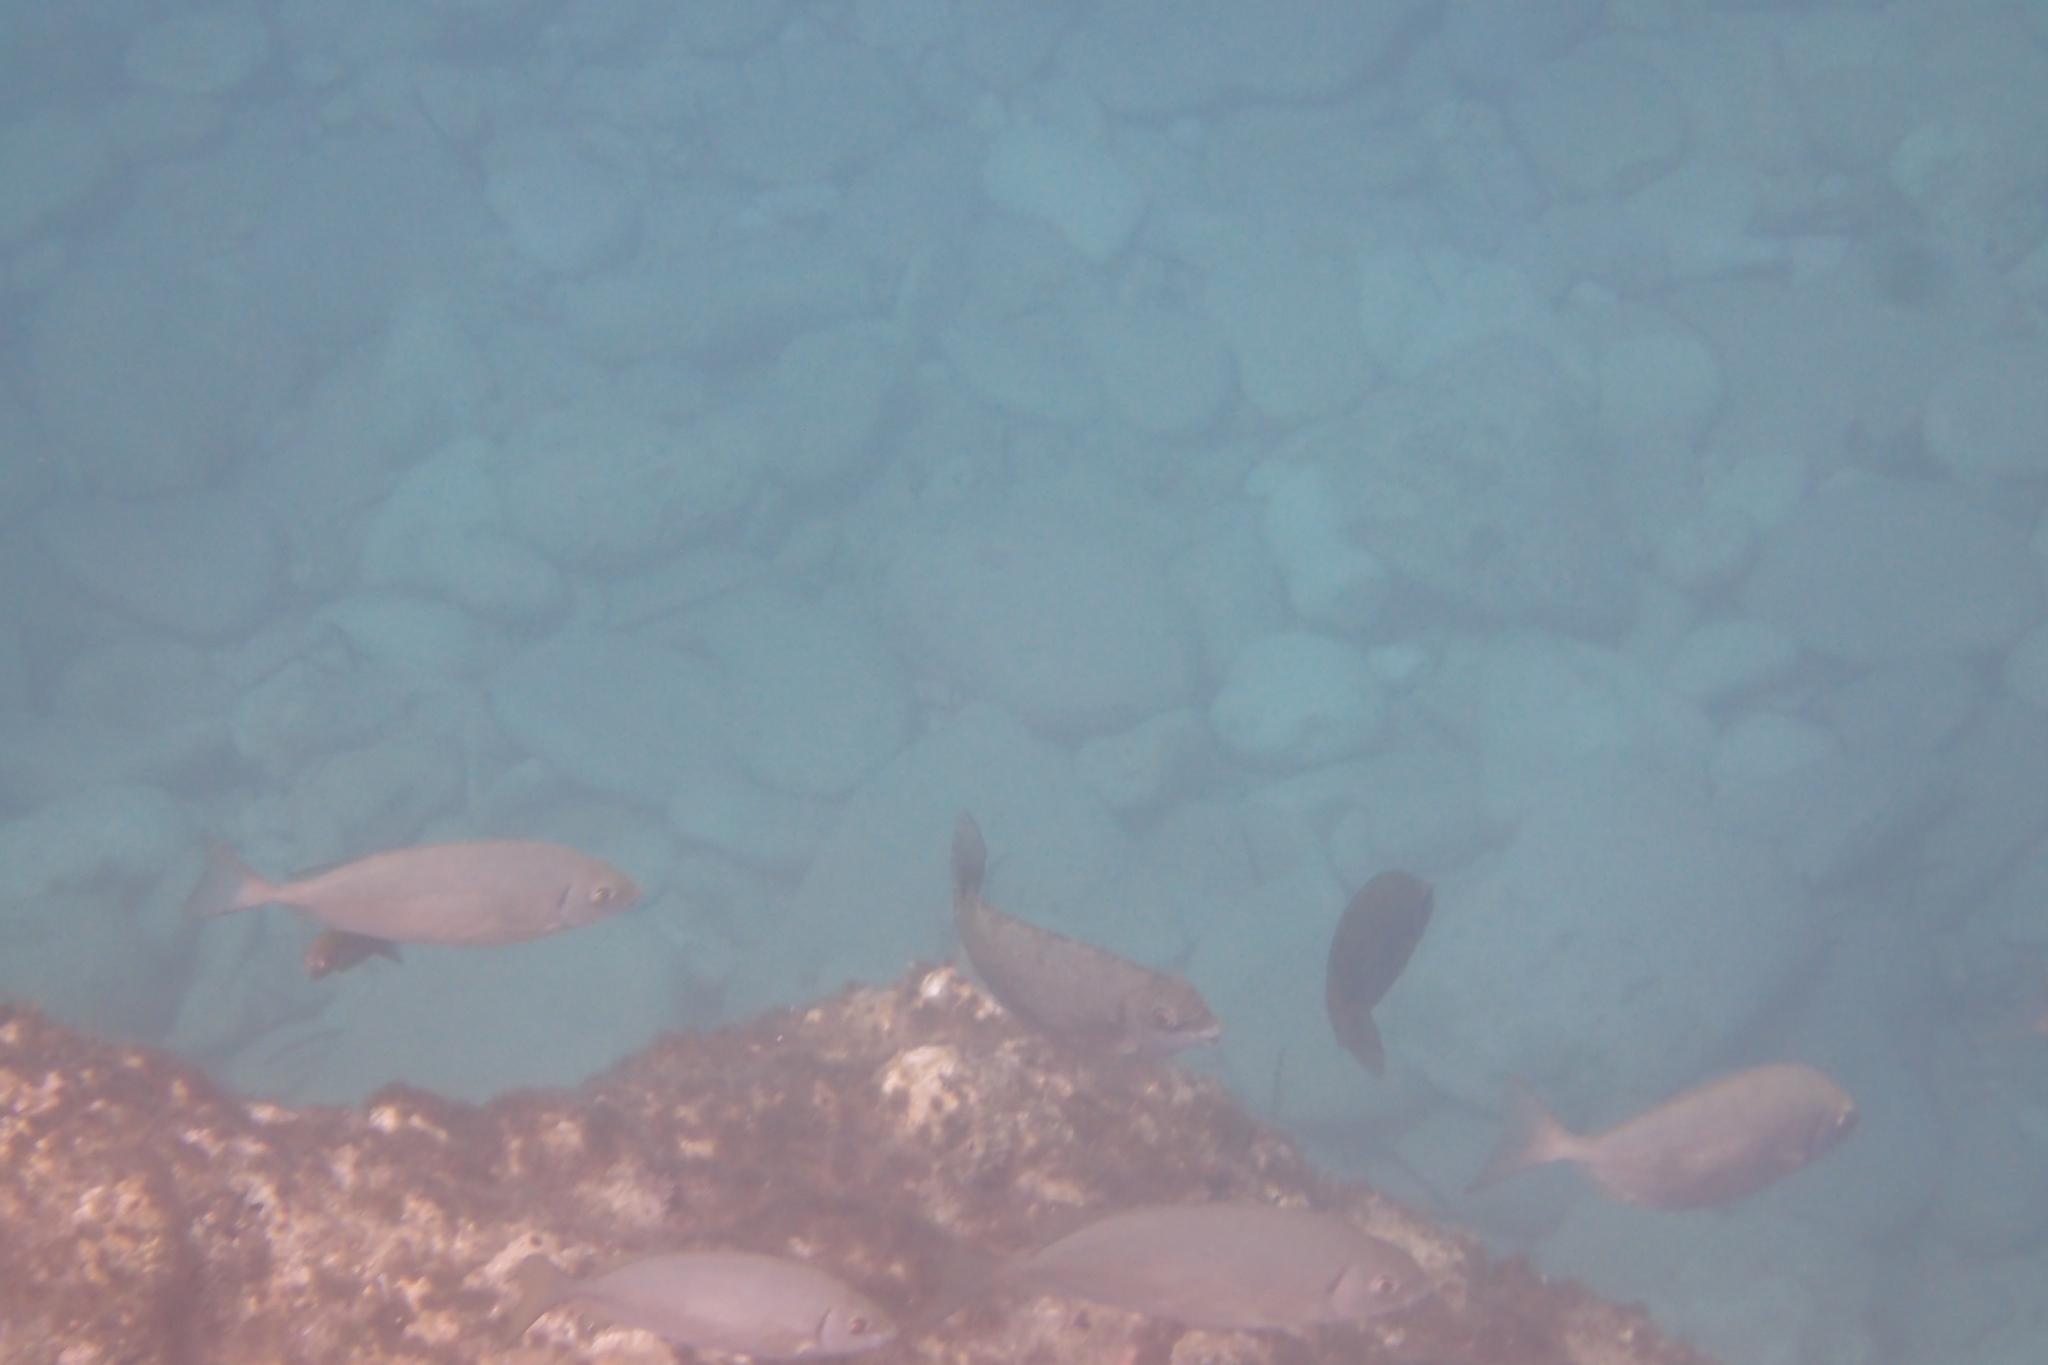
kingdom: Animalia
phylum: Chordata
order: Perciformes
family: Siganidae
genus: Siganus
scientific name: Siganus rivulatus
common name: Marbled spinefoot
